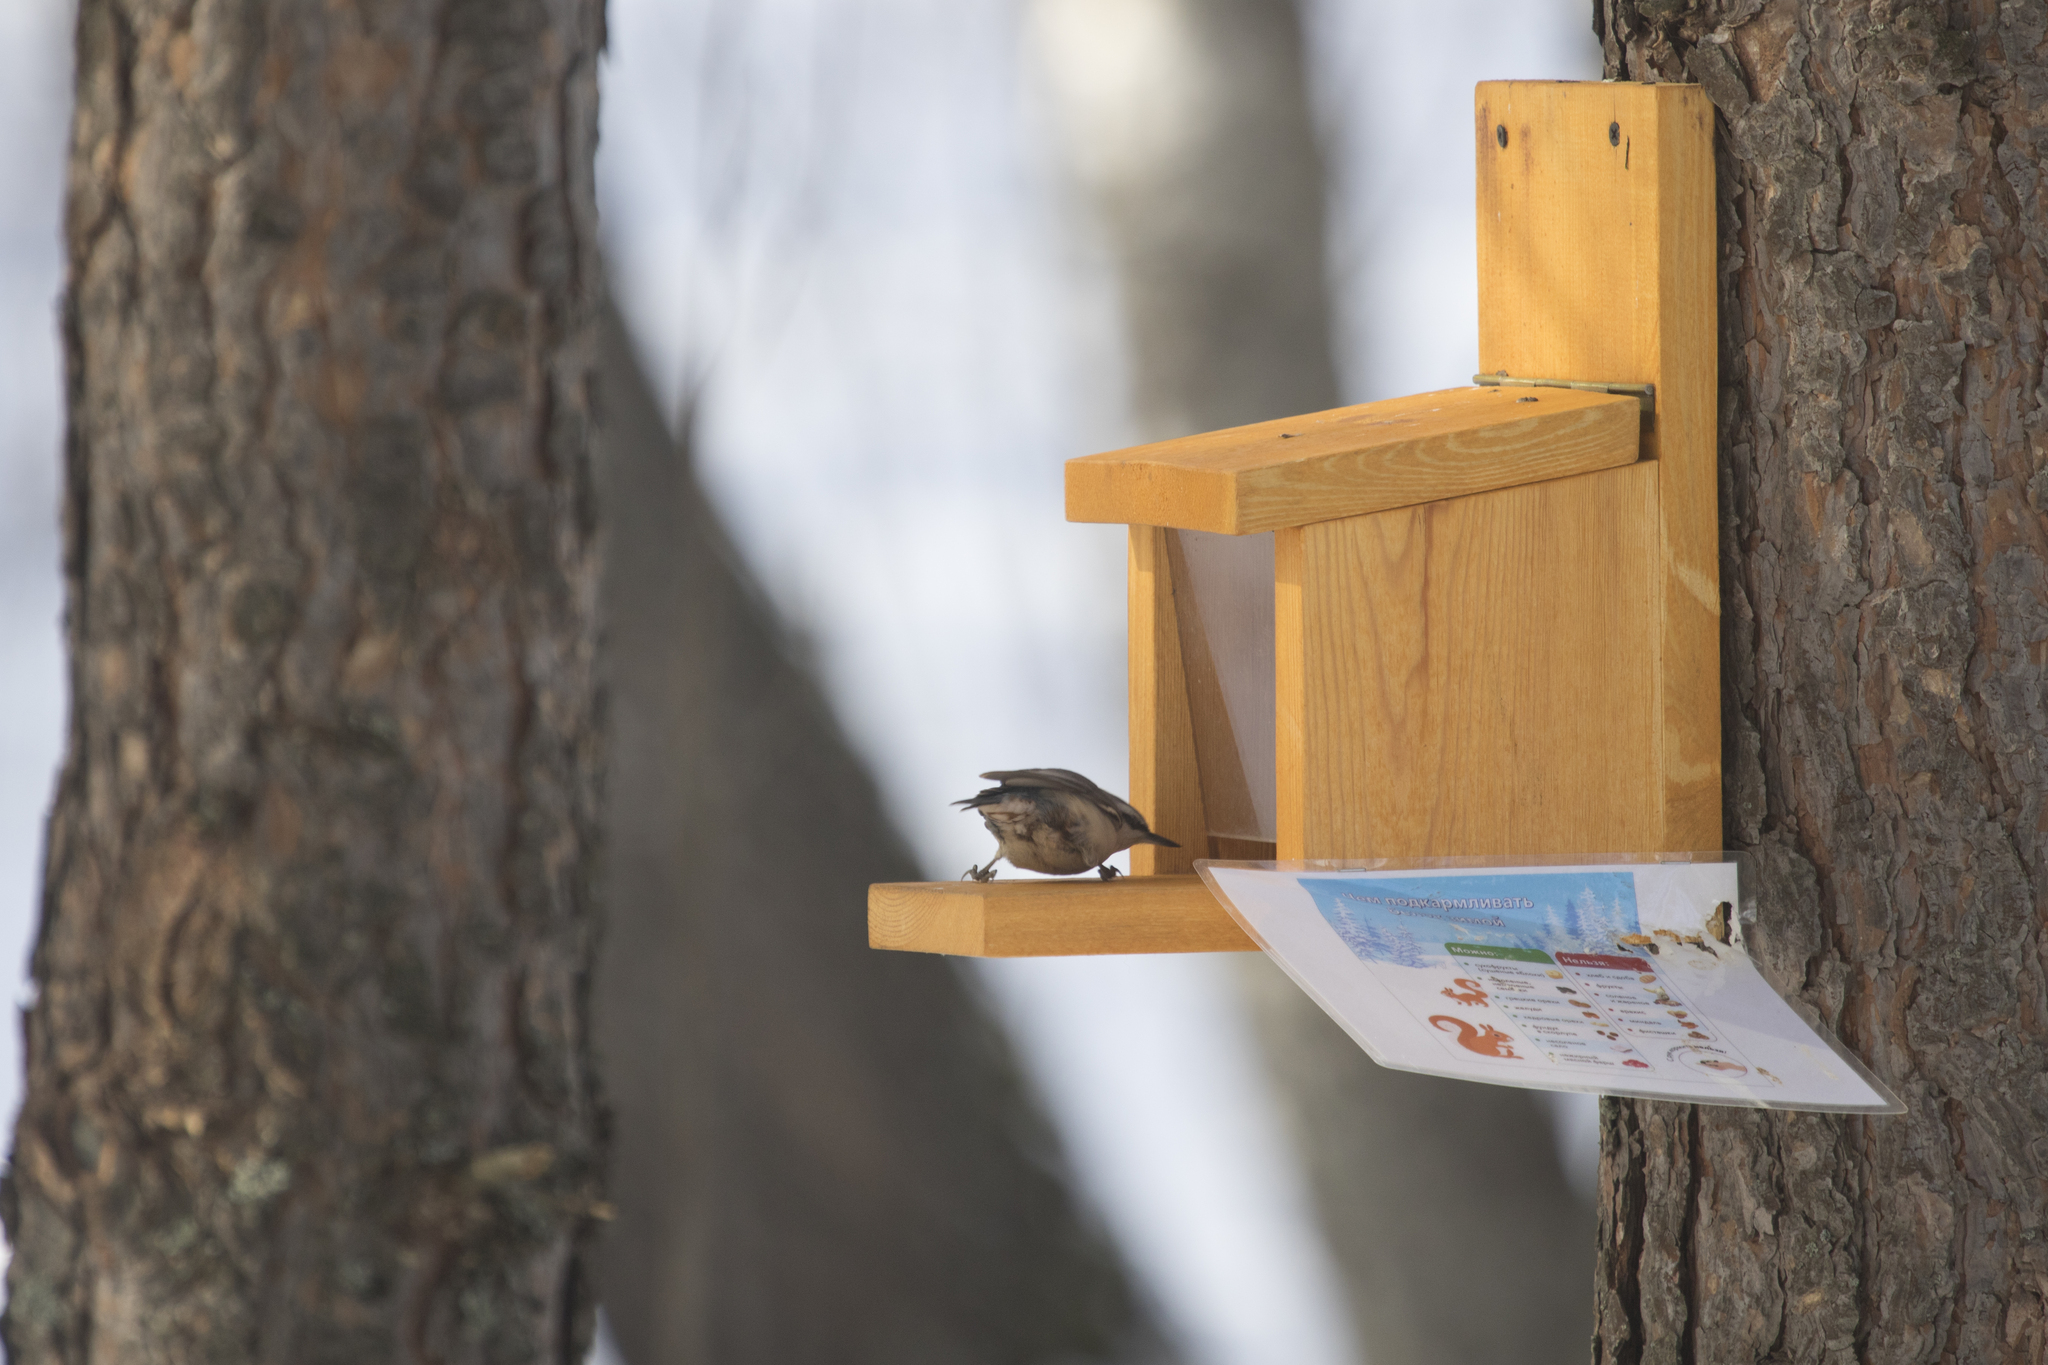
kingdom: Animalia
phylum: Chordata
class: Aves
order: Passeriformes
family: Sittidae
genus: Sitta
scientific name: Sitta europaea
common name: Eurasian nuthatch
